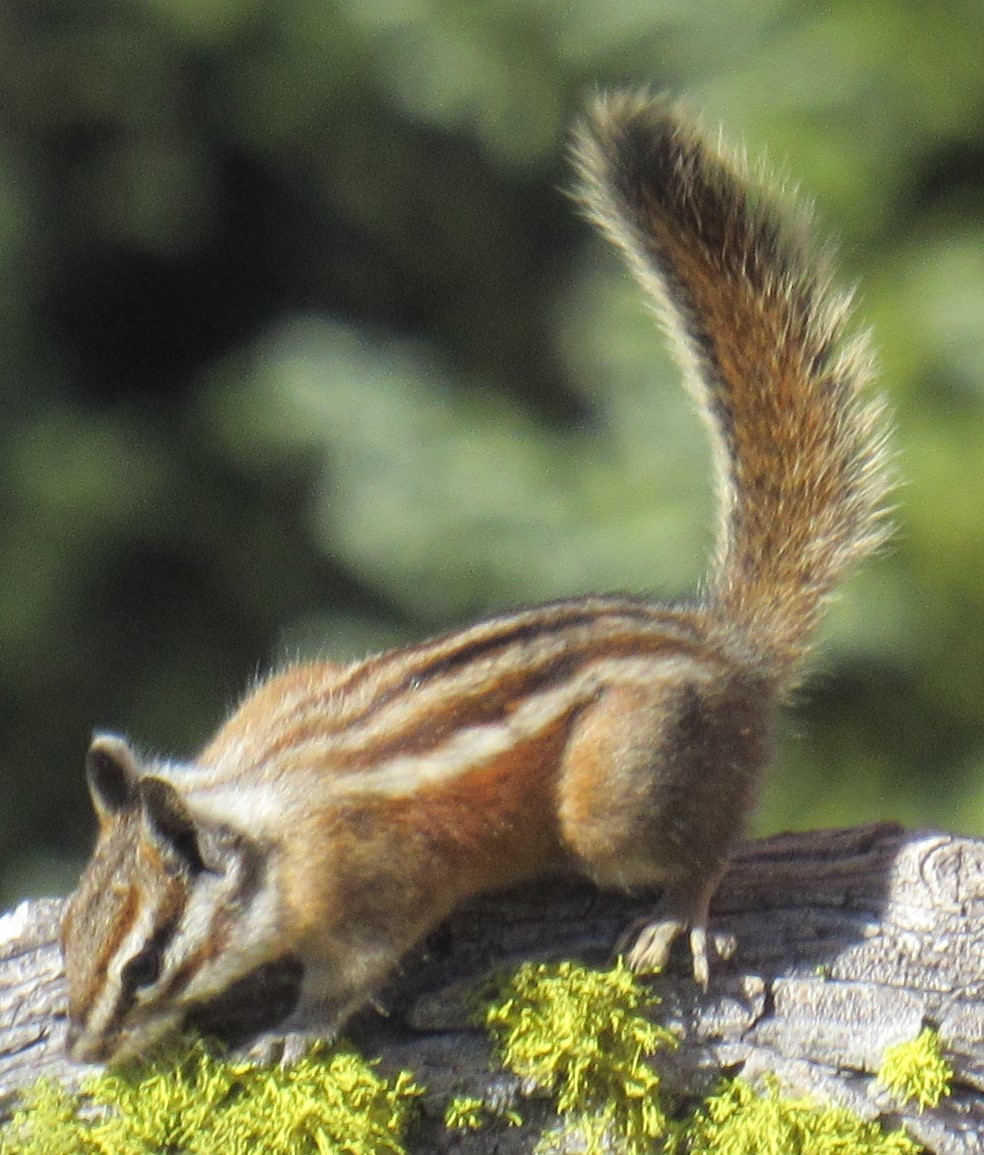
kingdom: Animalia
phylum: Chordata
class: Mammalia
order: Rodentia
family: Sciuridae
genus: Tamias
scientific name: Tamias quadrimaculatus
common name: Long-eared chipmunk
